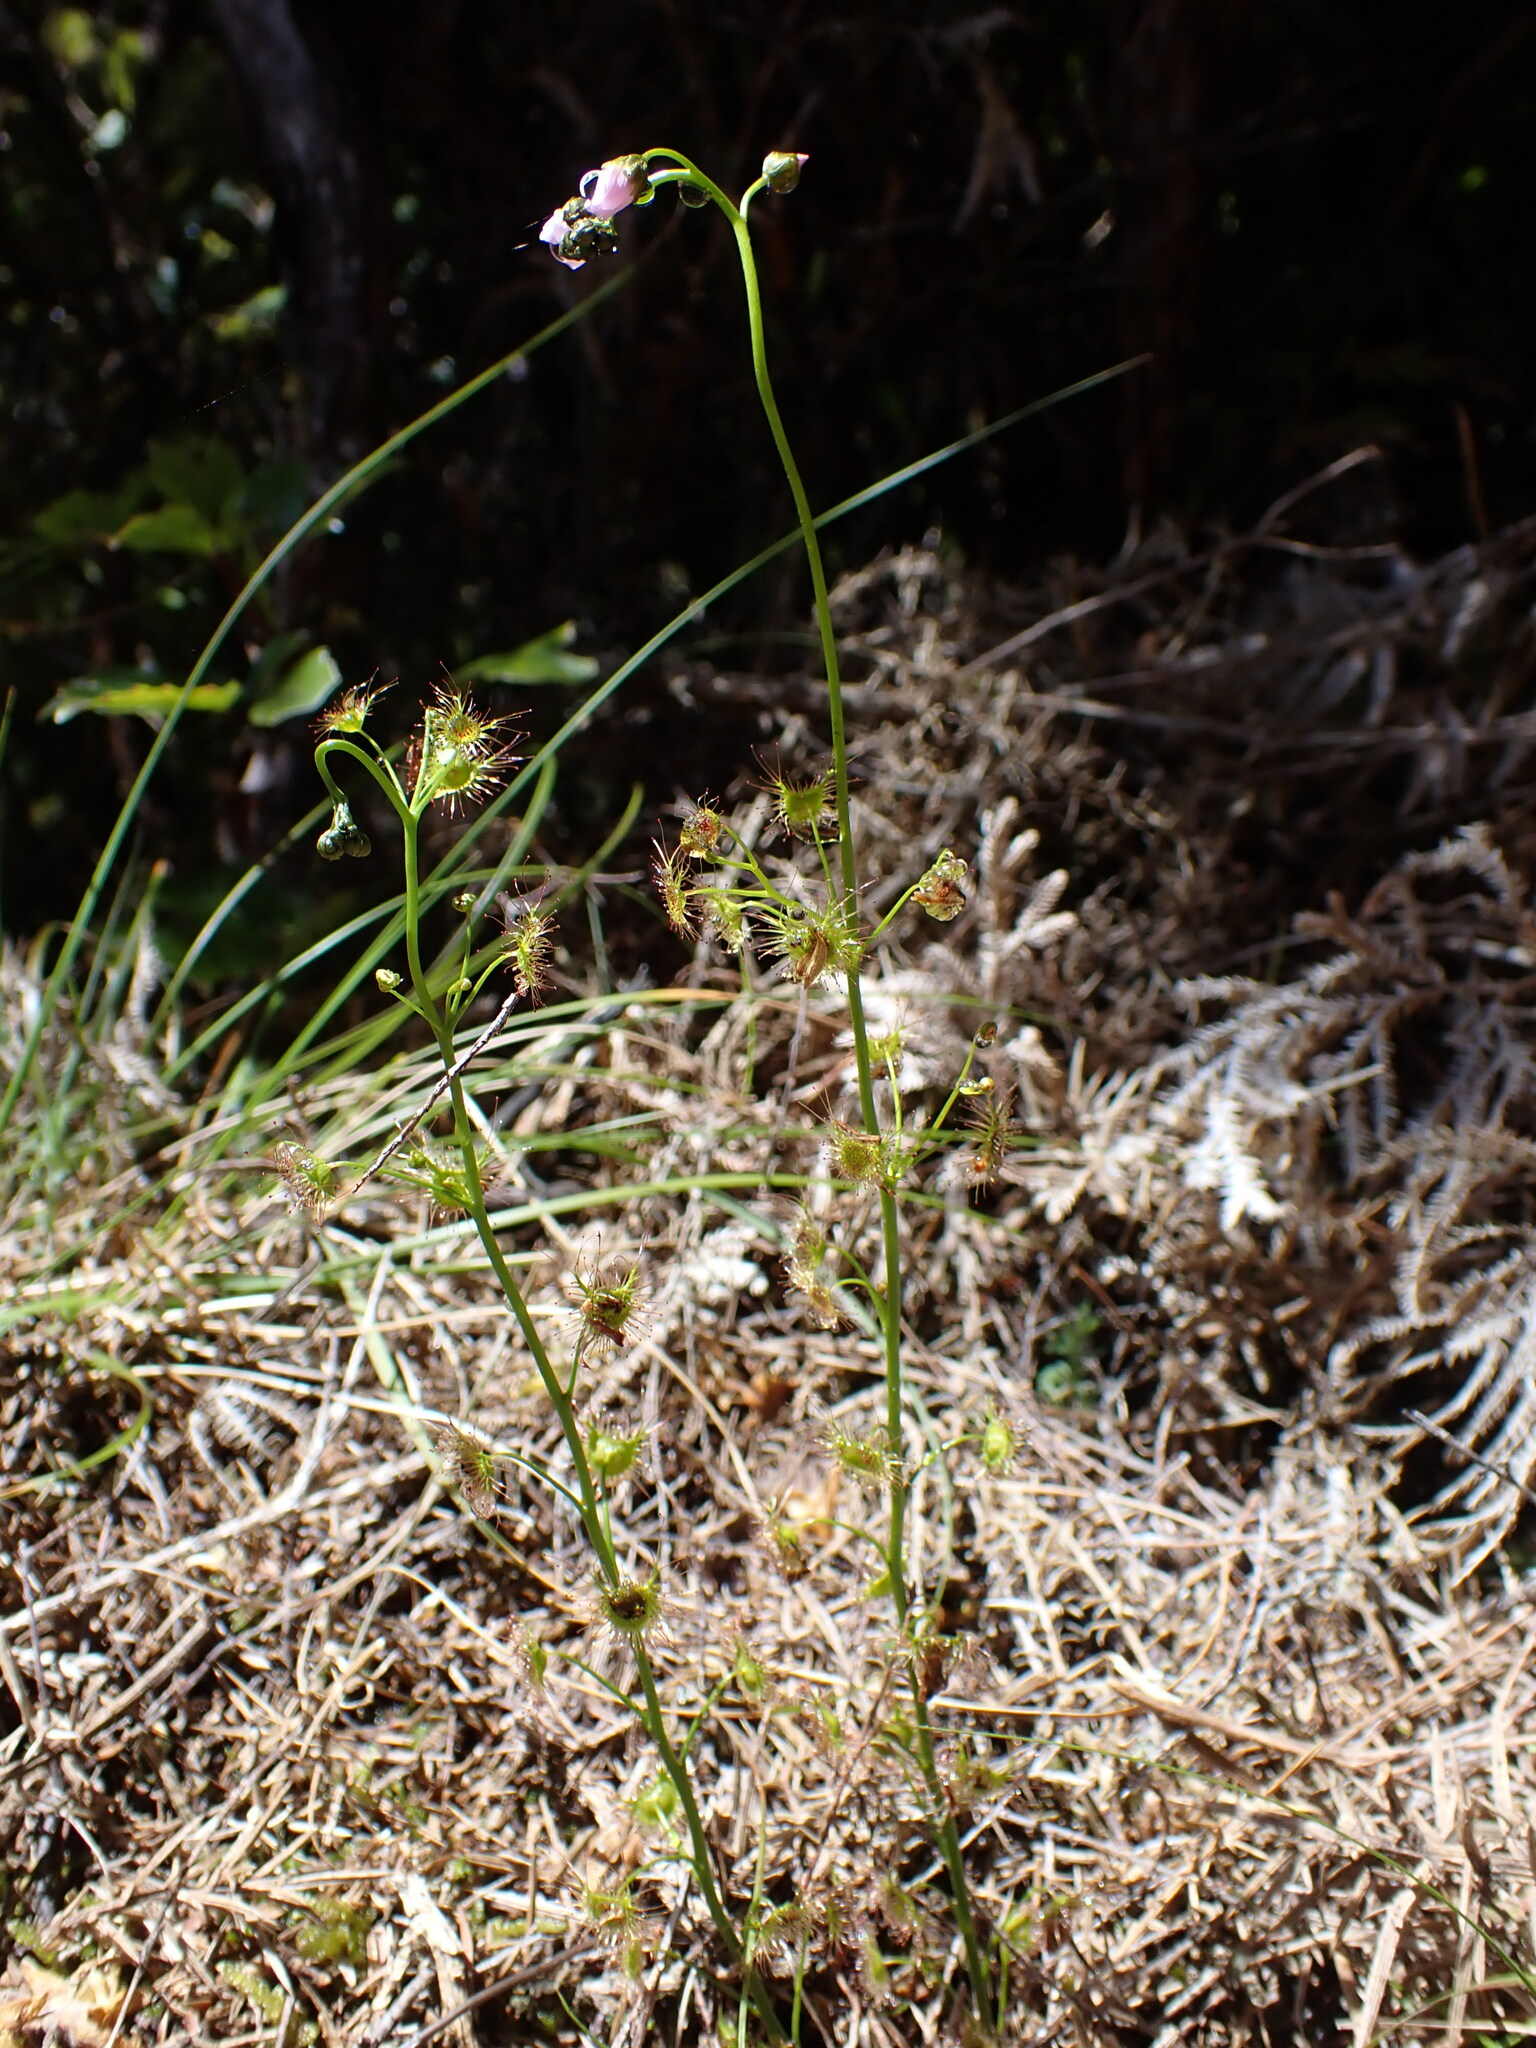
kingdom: Plantae
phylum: Tracheophyta
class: Magnoliopsida
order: Caryophyllales
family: Droseraceae
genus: Drosera
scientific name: Drosera peltata
